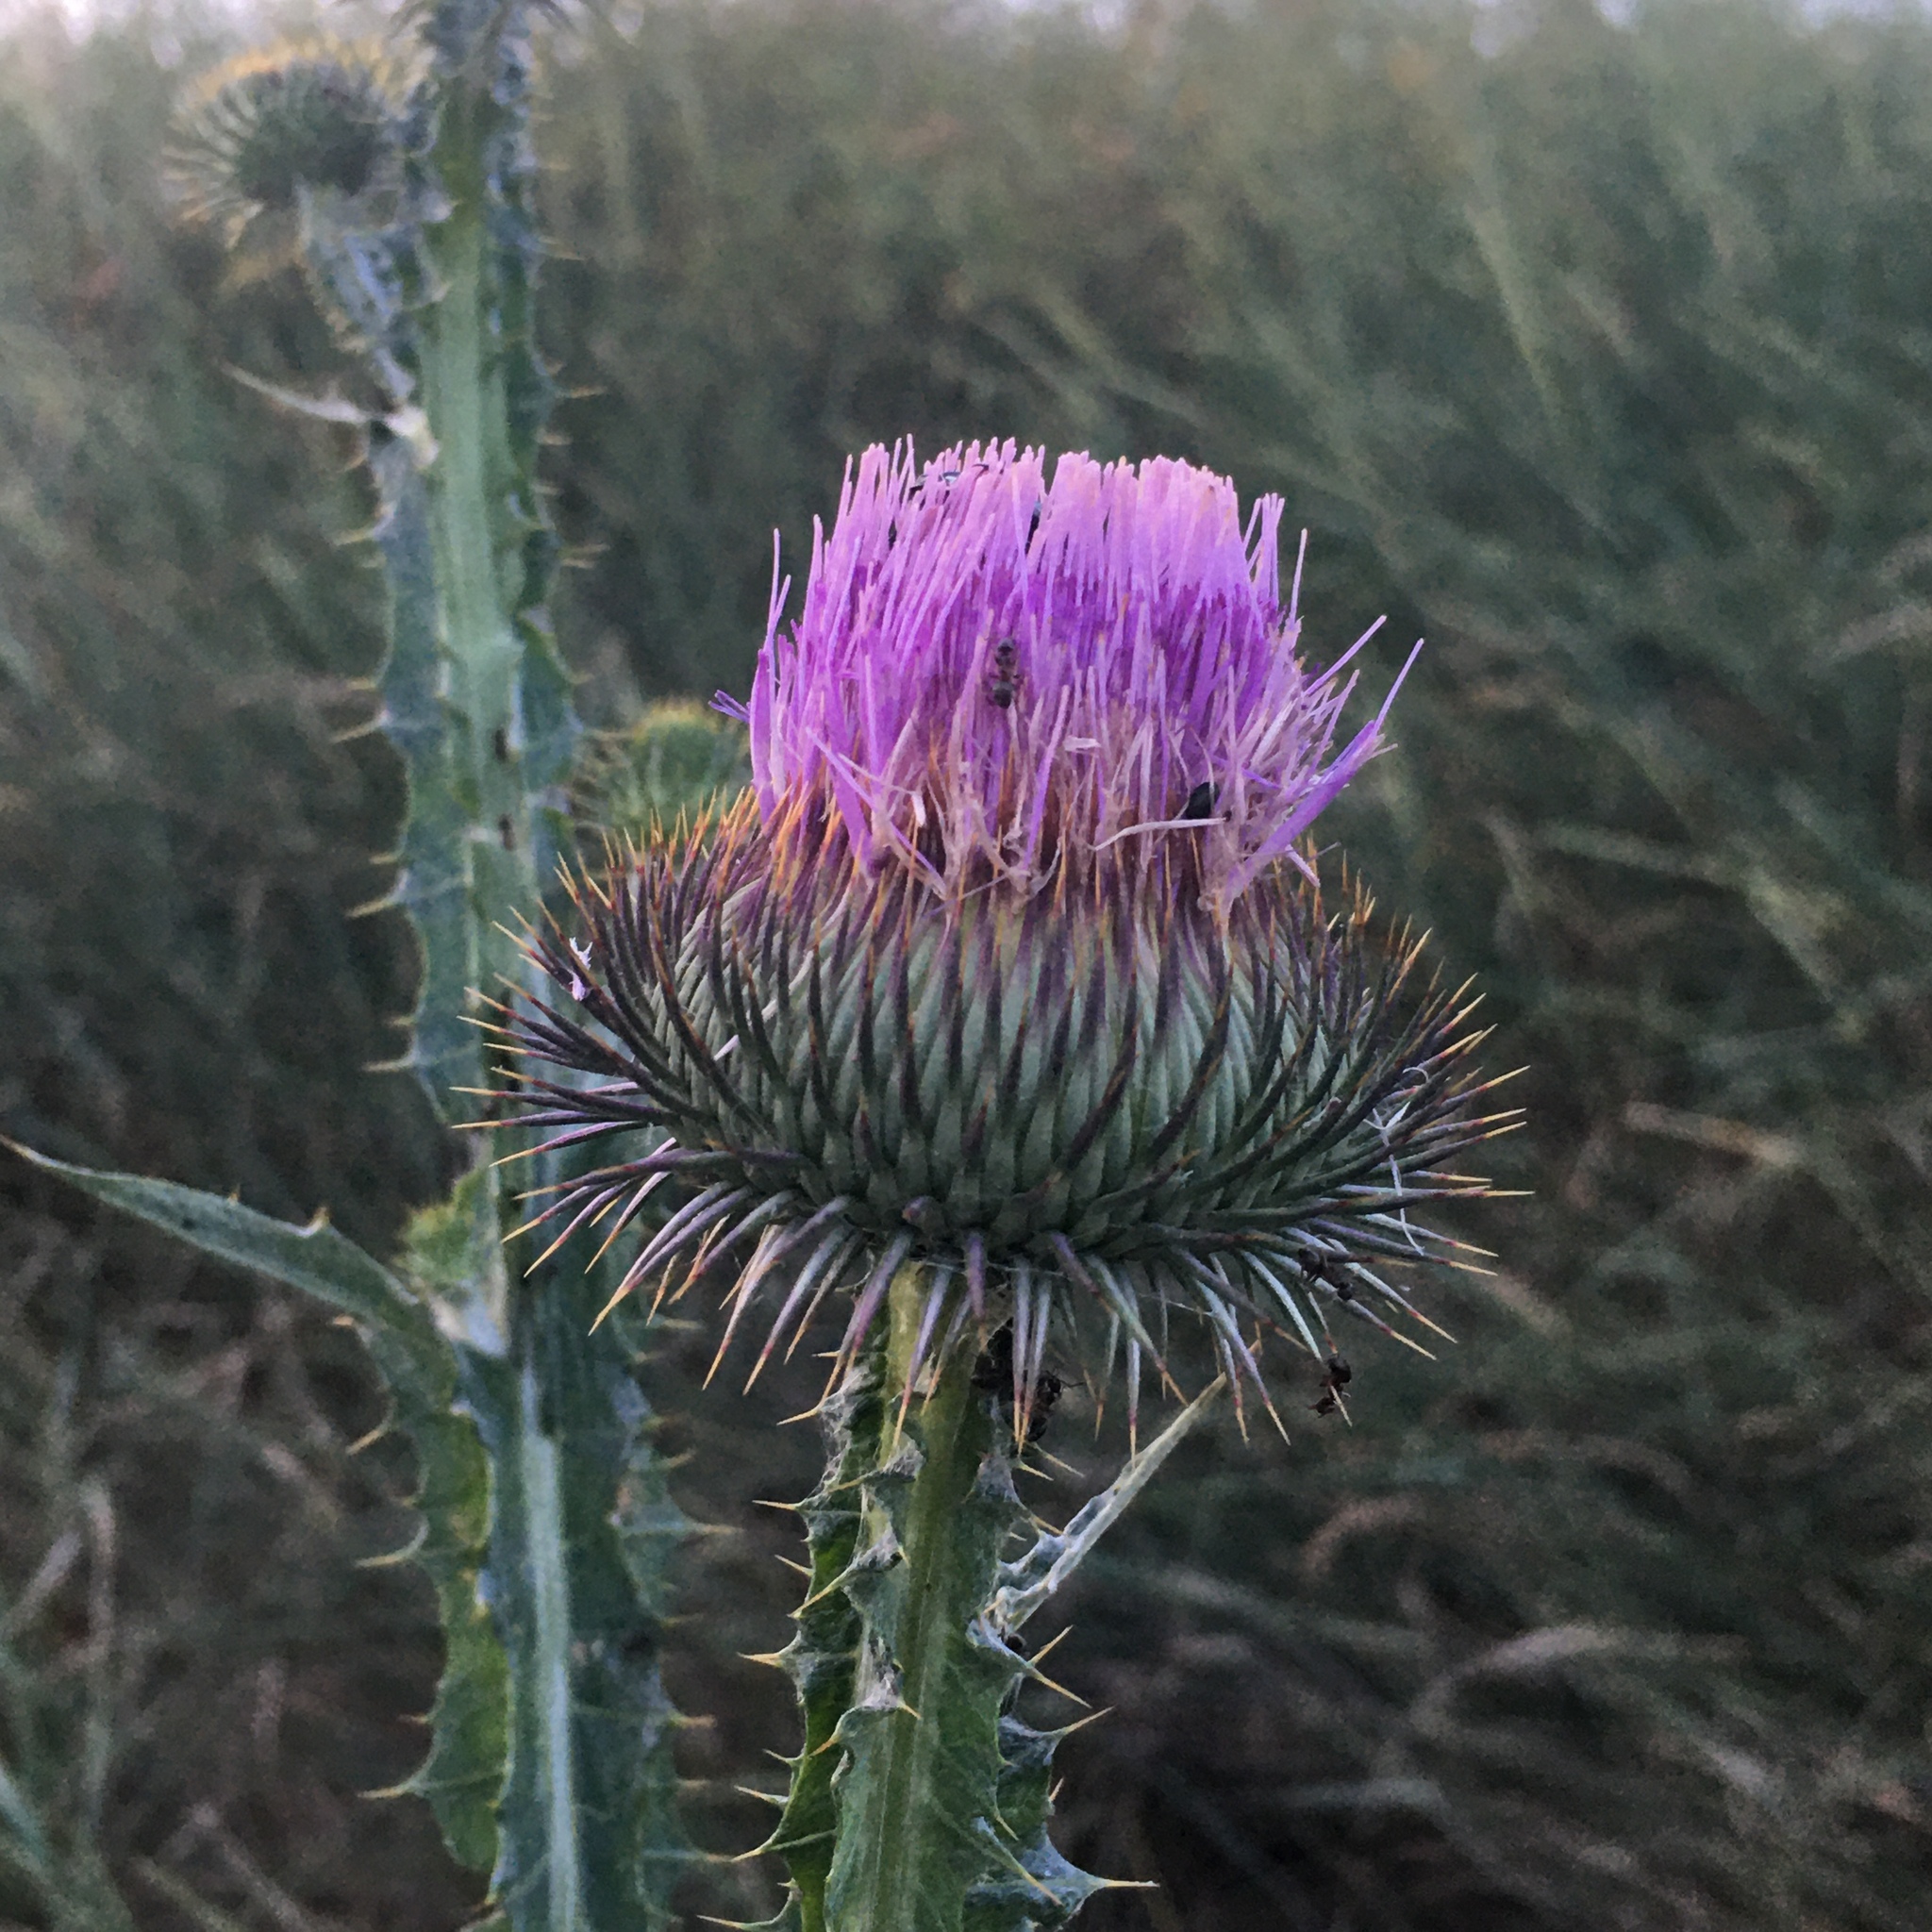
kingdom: Plantae
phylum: Tracheophyta
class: Magnoliopsida
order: Asterales
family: Asteraceae
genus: Onopordum
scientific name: Onopordum acanthium
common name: Scotch thistle
